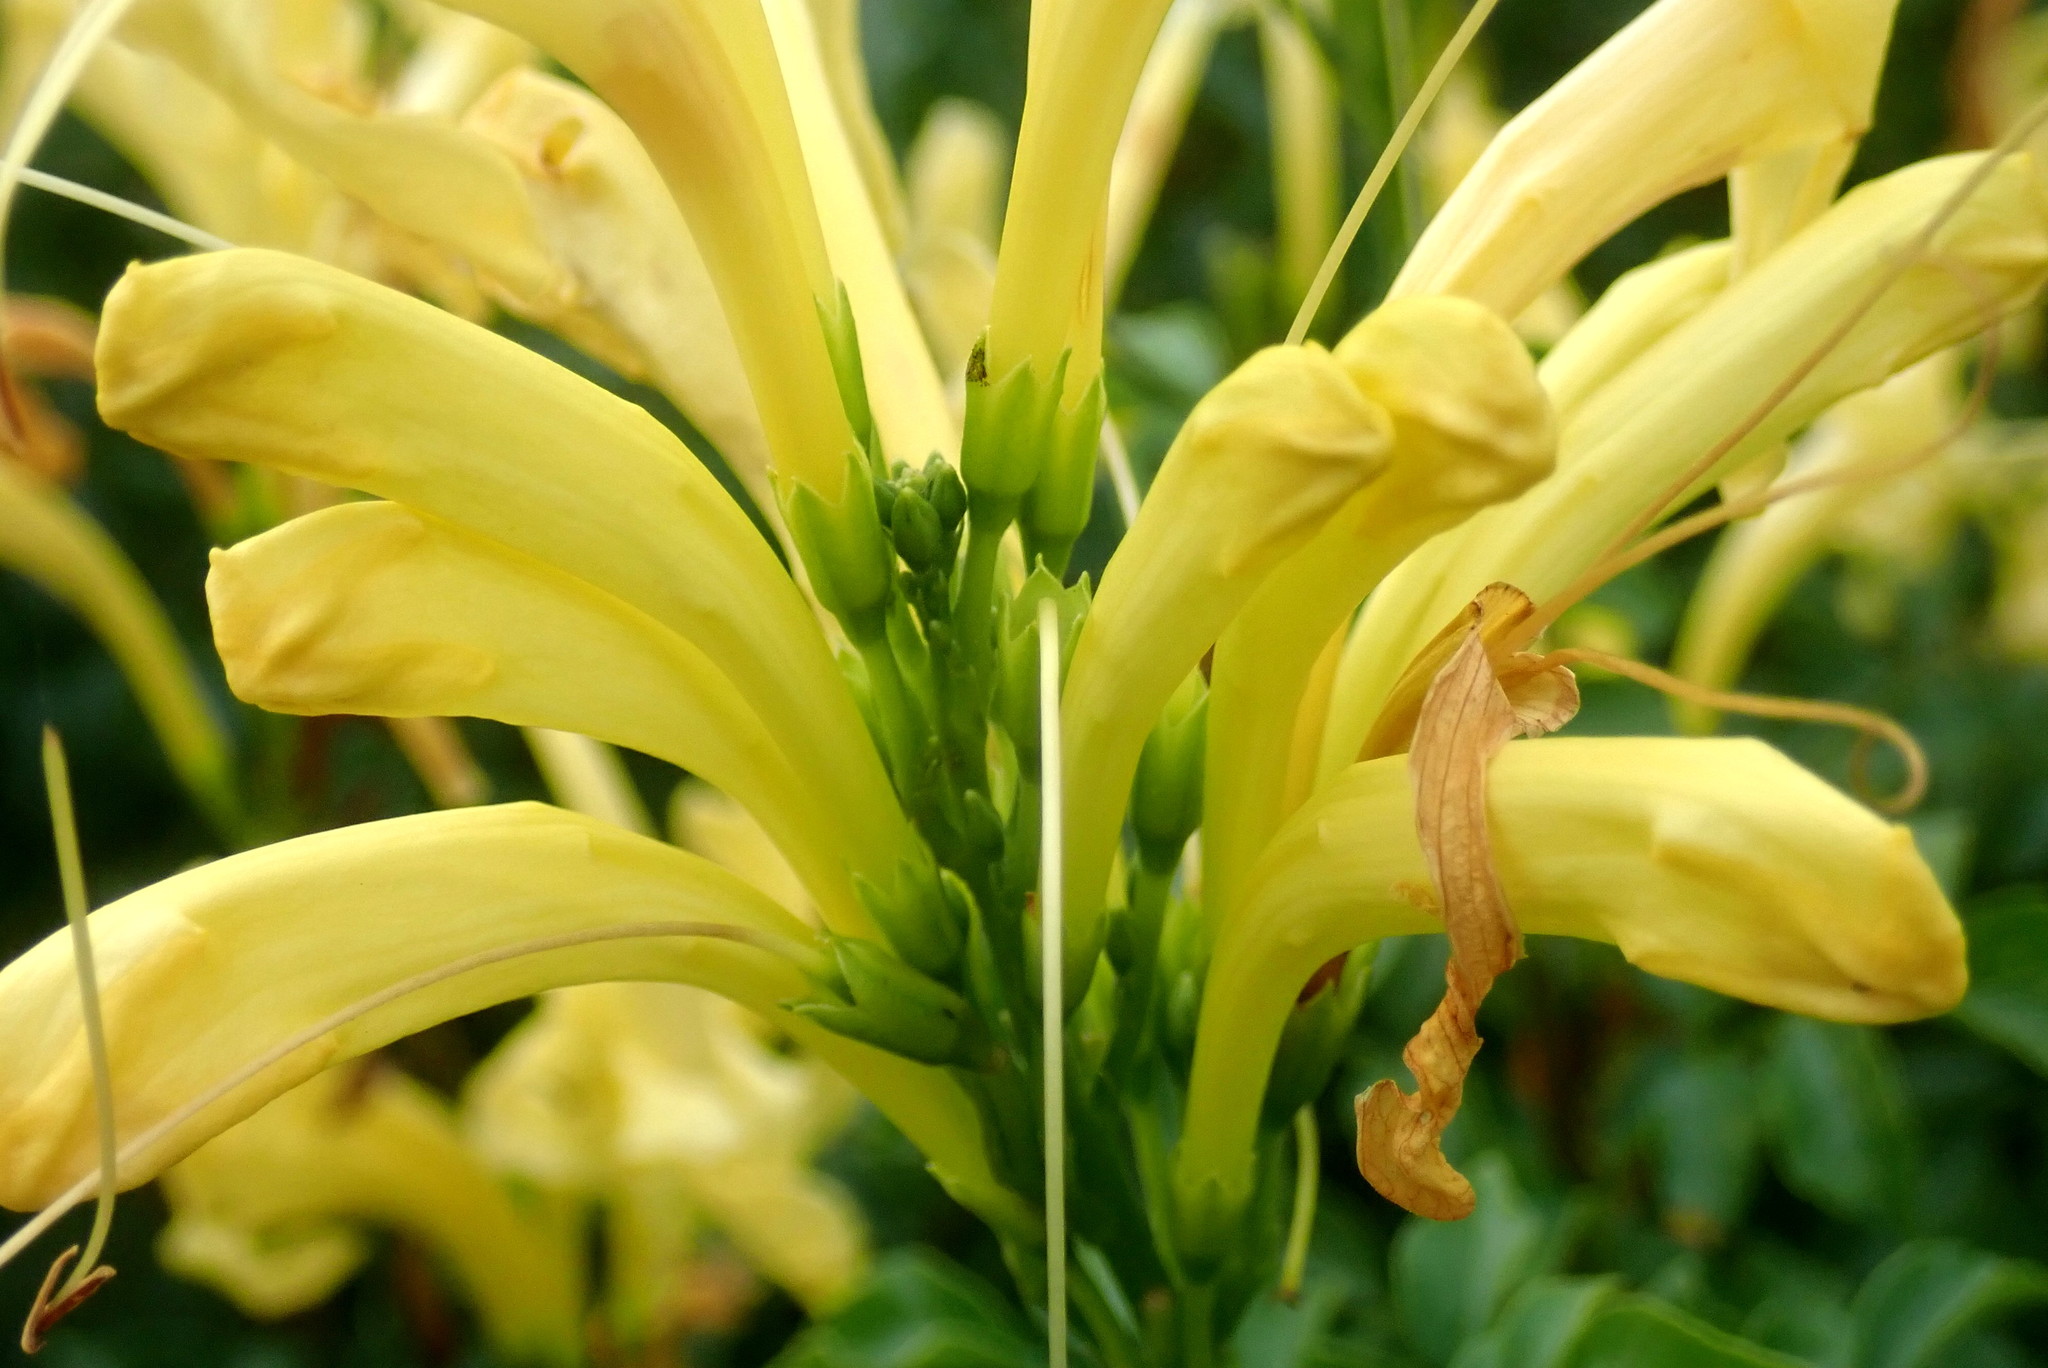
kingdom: Plantae
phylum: Tracheophyta
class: Magnoliopsida
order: Lamiales
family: Bignoniaceae
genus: Tecomaria
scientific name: Tecomaria capensis
